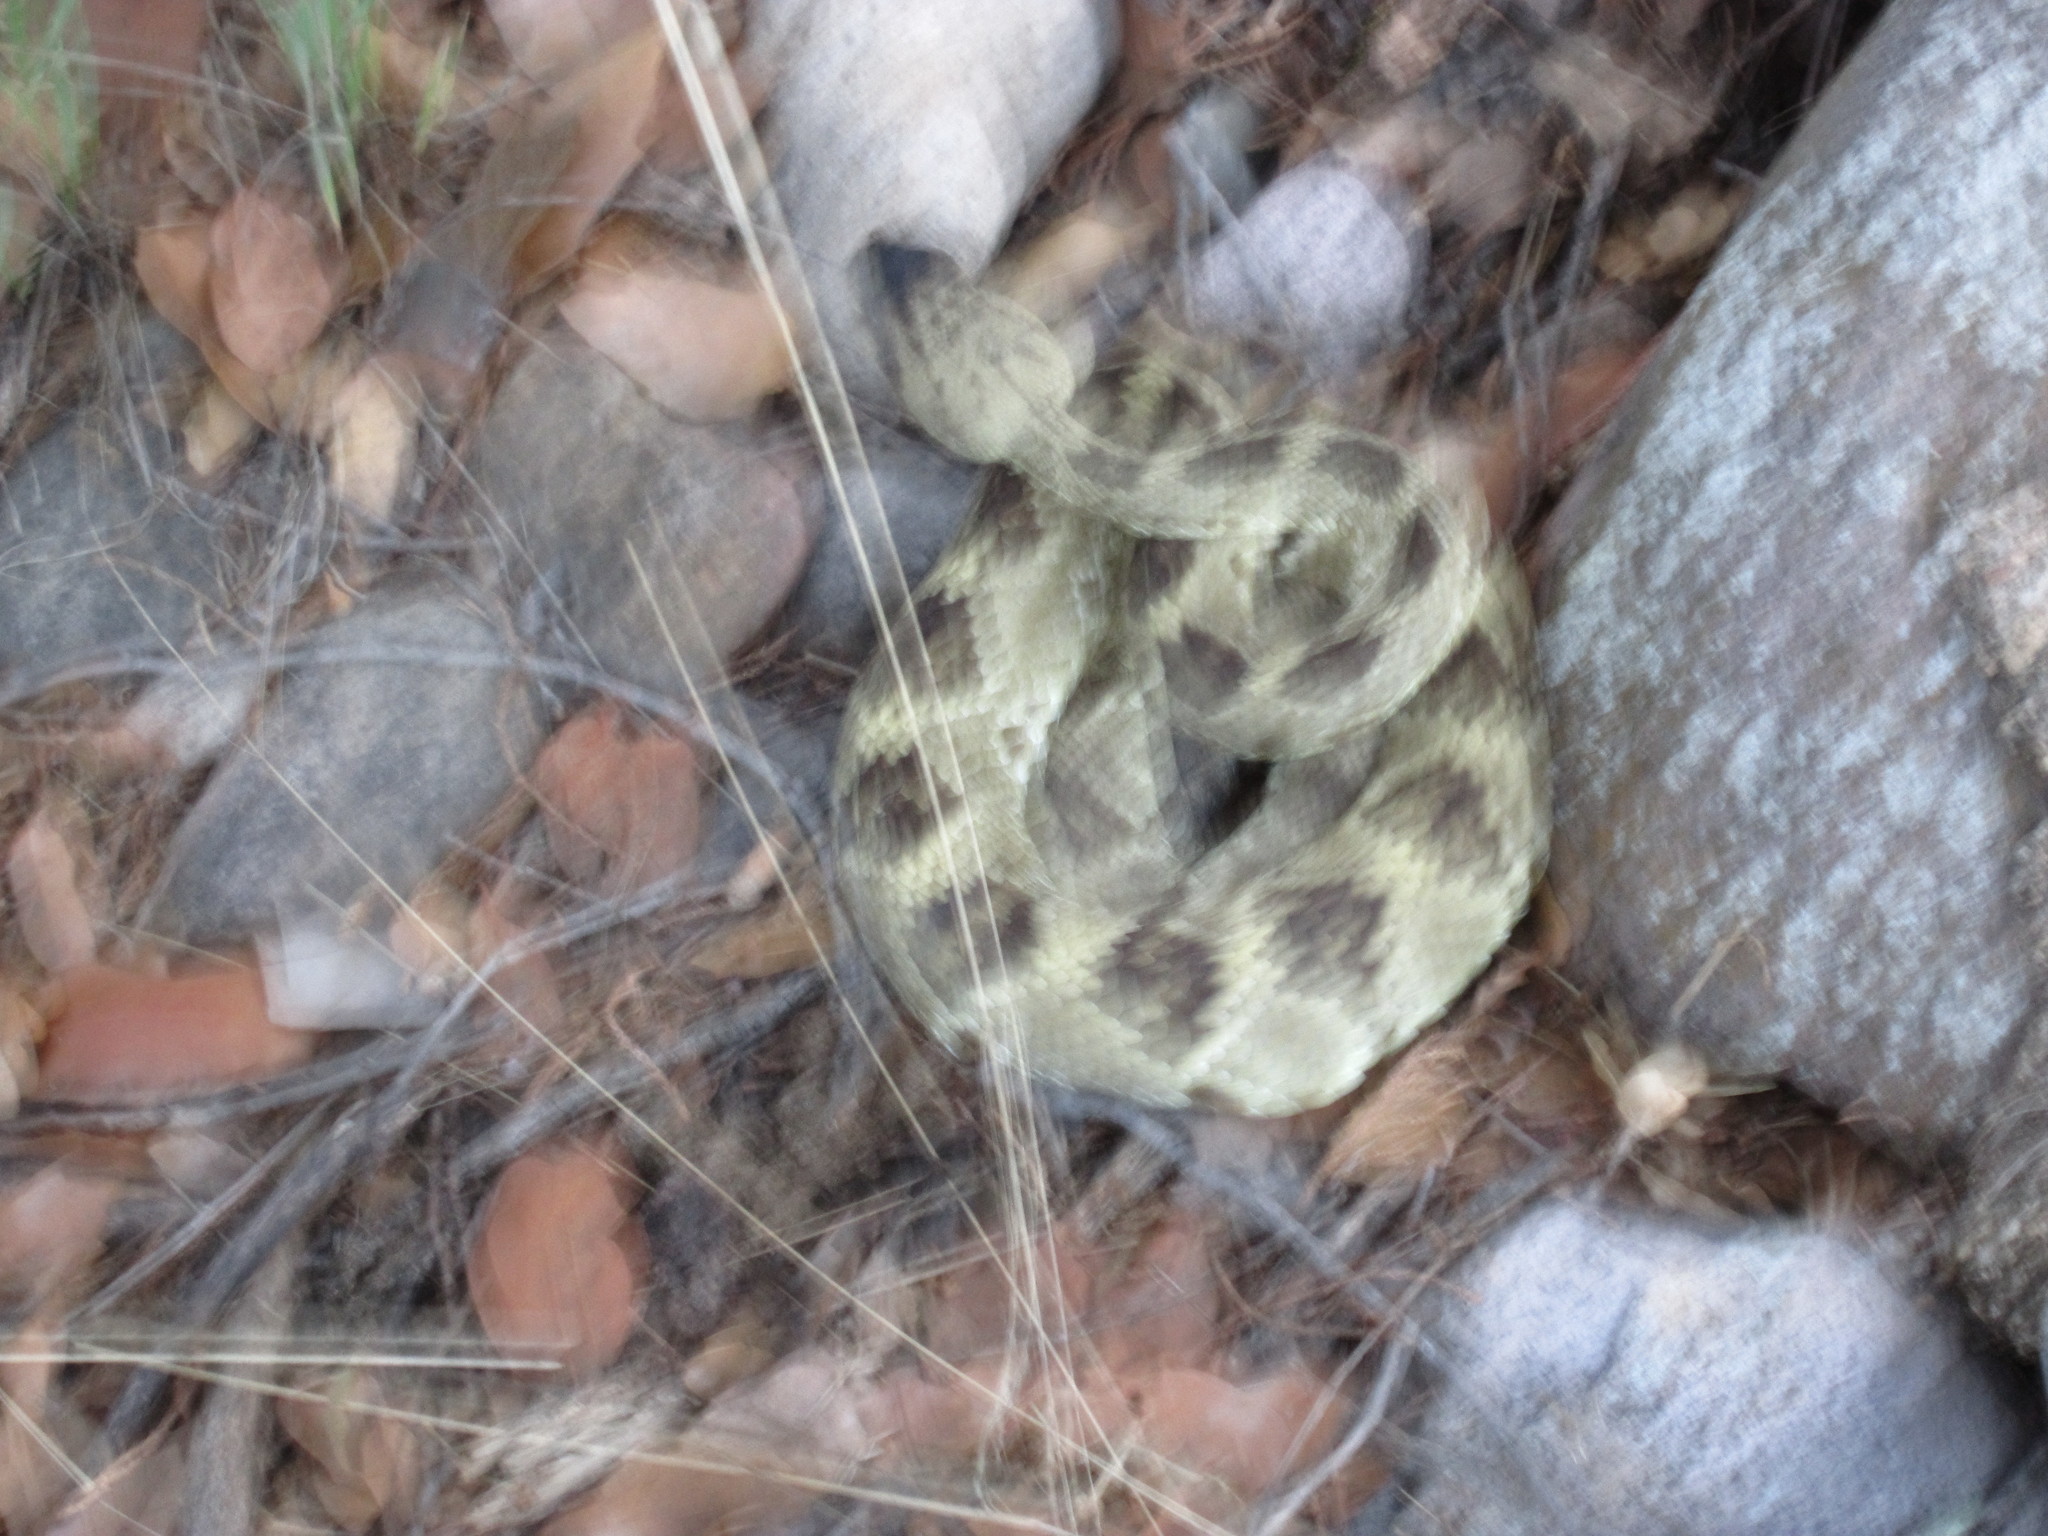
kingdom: Animalia
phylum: Chordata
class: Squamata
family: Viperidae
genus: Crotalus
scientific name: Crotalus molossus
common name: Black tailed rattlesnake
